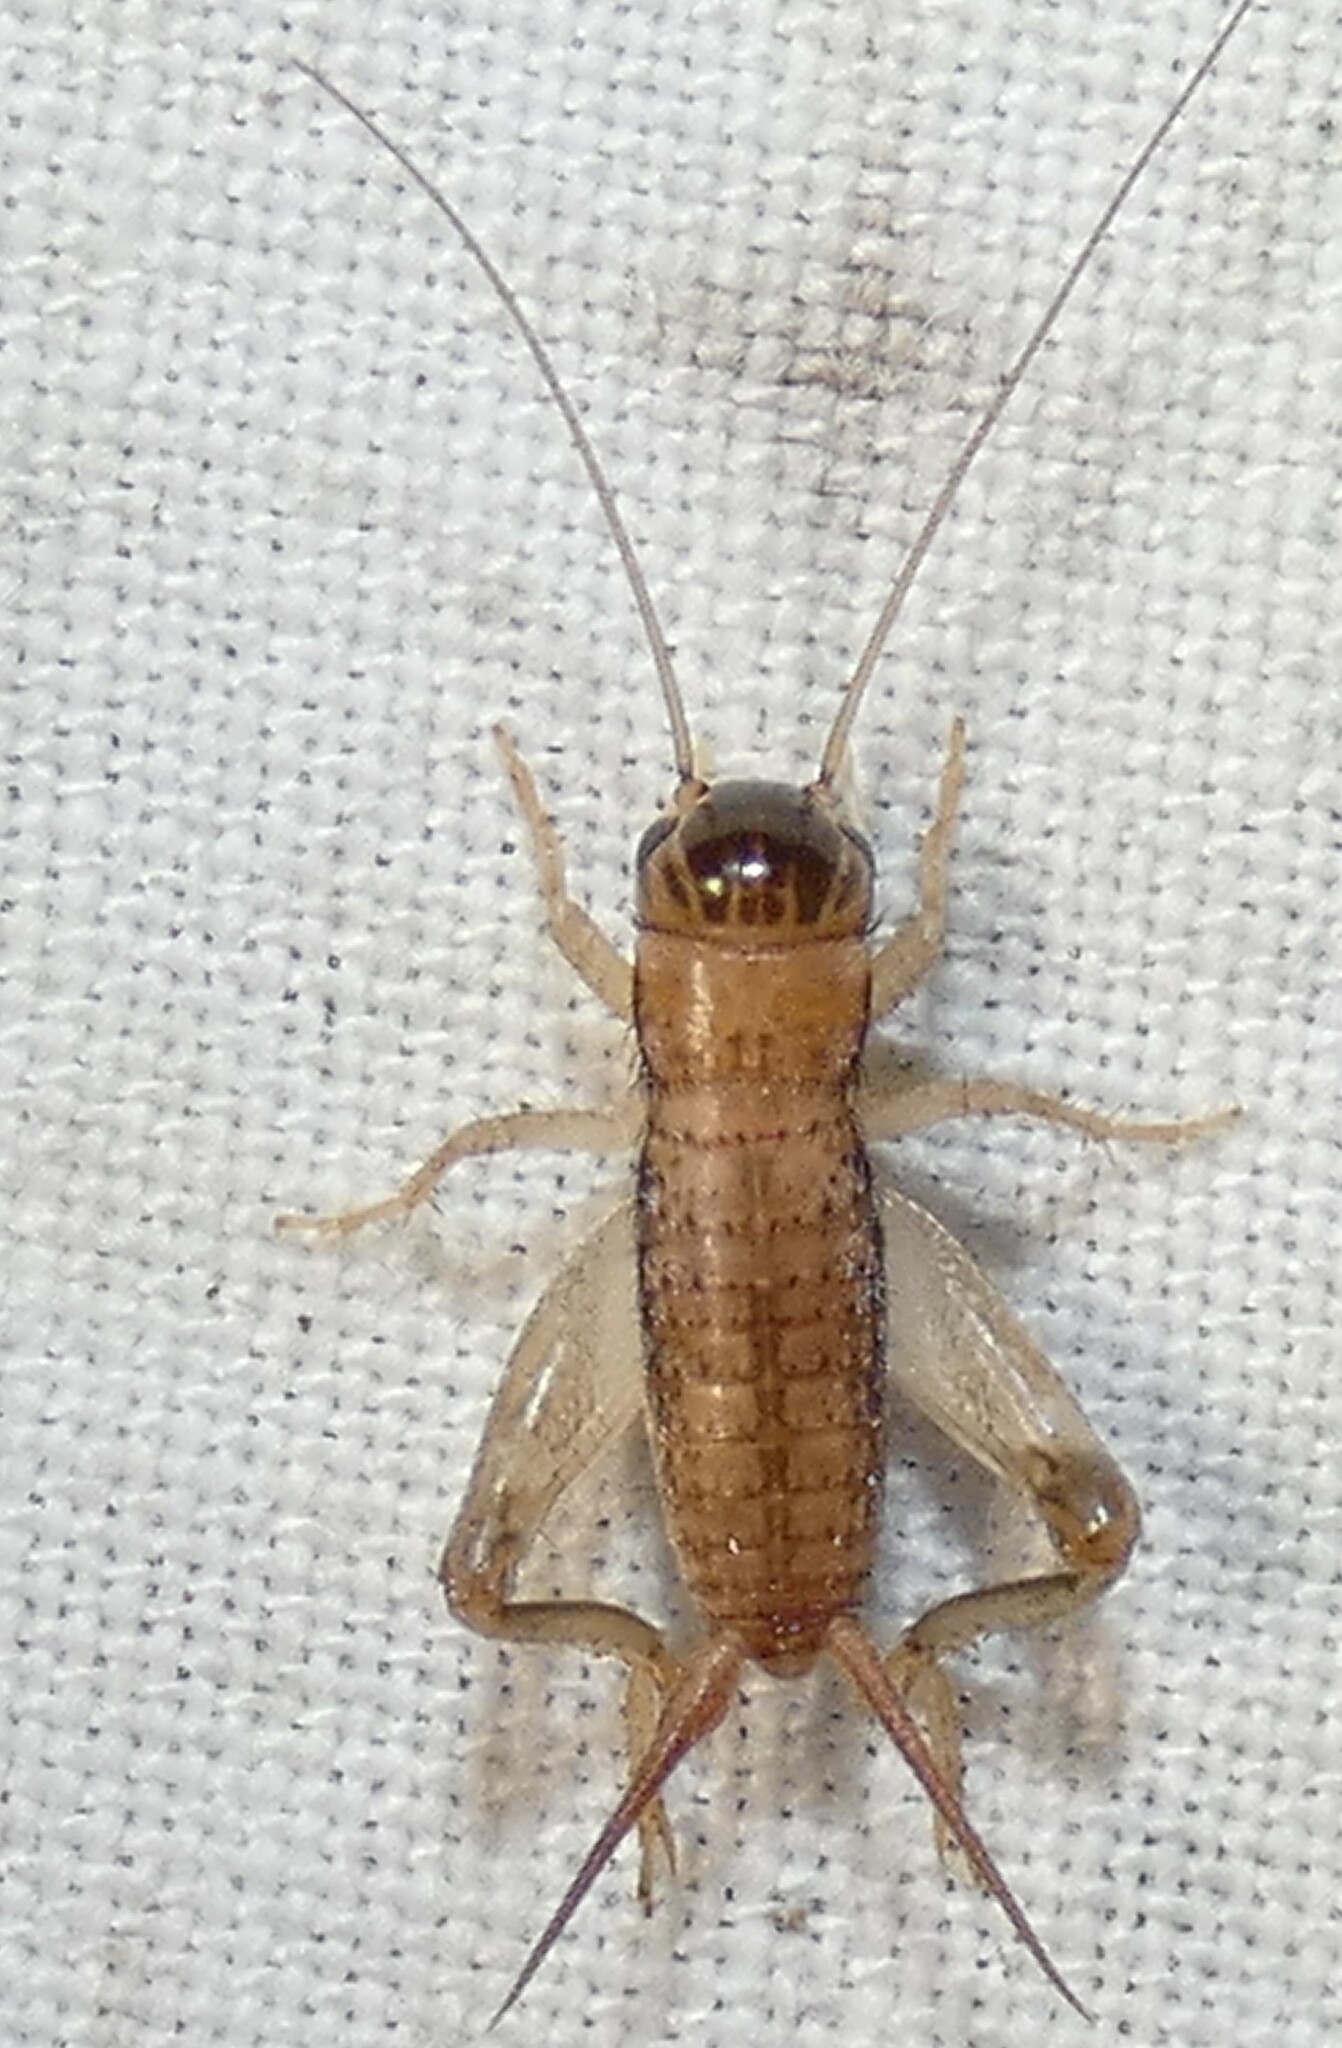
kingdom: Animalia
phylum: Arthropoda
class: Insecta
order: Orthoptera
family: Gryllidae
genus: Miogryllus
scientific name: Miogryllus verticalis
